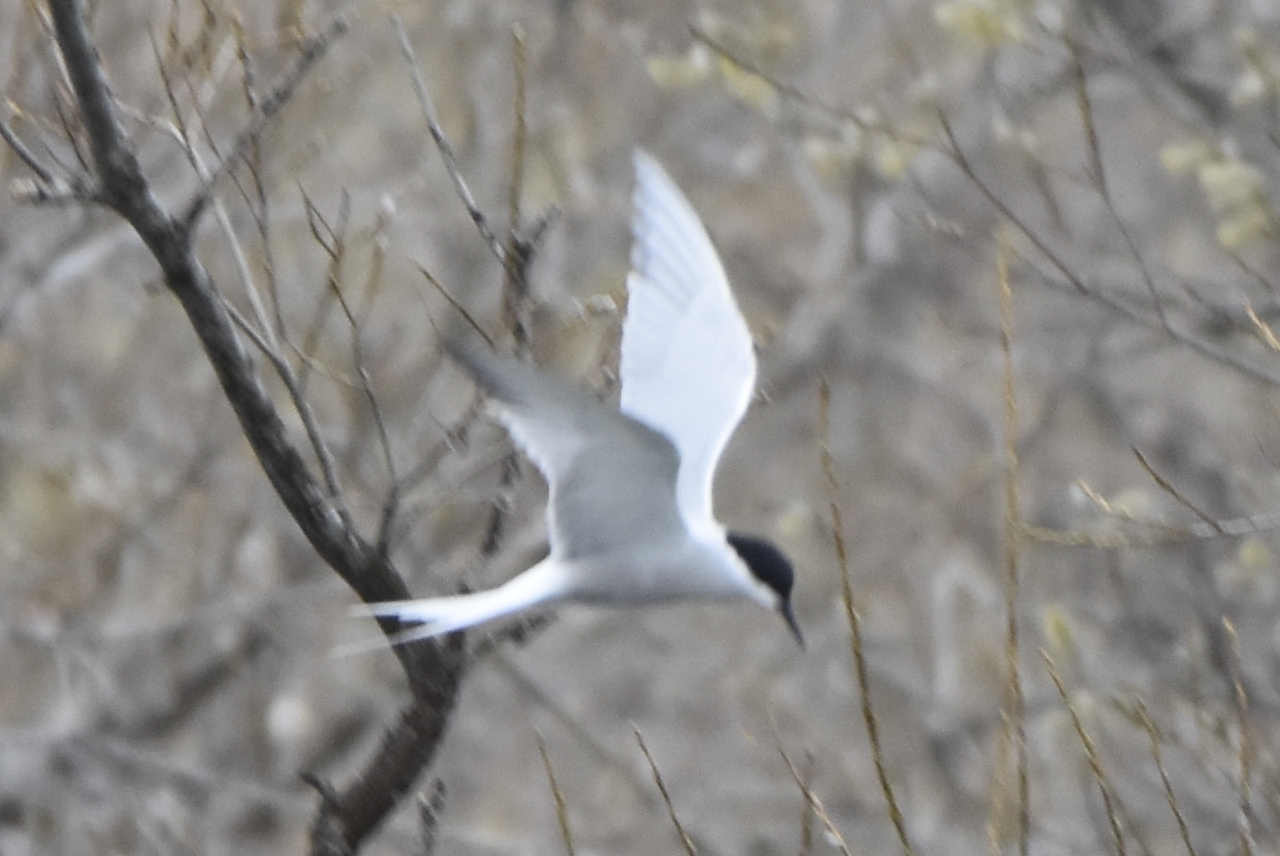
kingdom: Animalia
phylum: Chordata
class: Aves
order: Charadriiformes
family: Laridae
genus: Sterna
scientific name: Sterna hirundo
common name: Common tern
